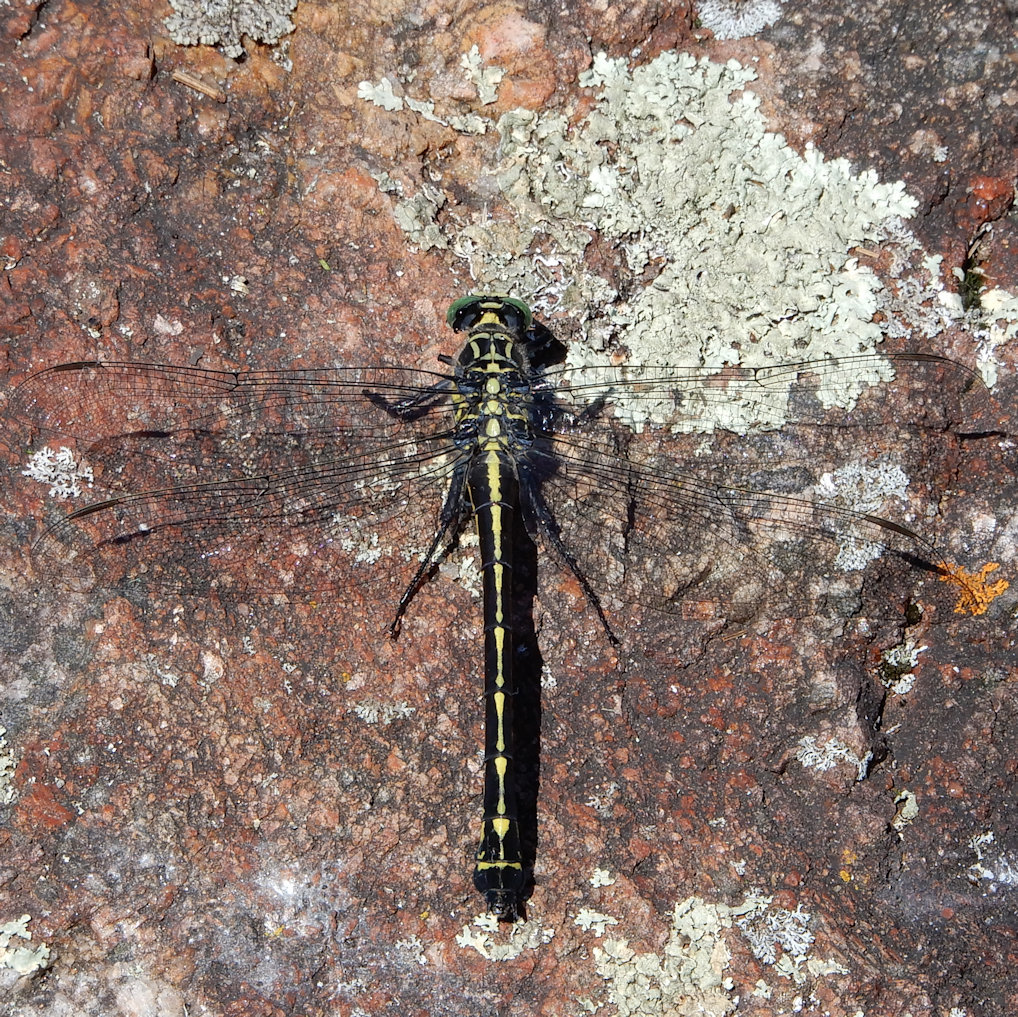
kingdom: Animalia
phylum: Arthropoda
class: Insecta
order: Odonata
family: Gomphidae
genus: Hagenius
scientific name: Hagenius brevistylus
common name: Dragonhunter
